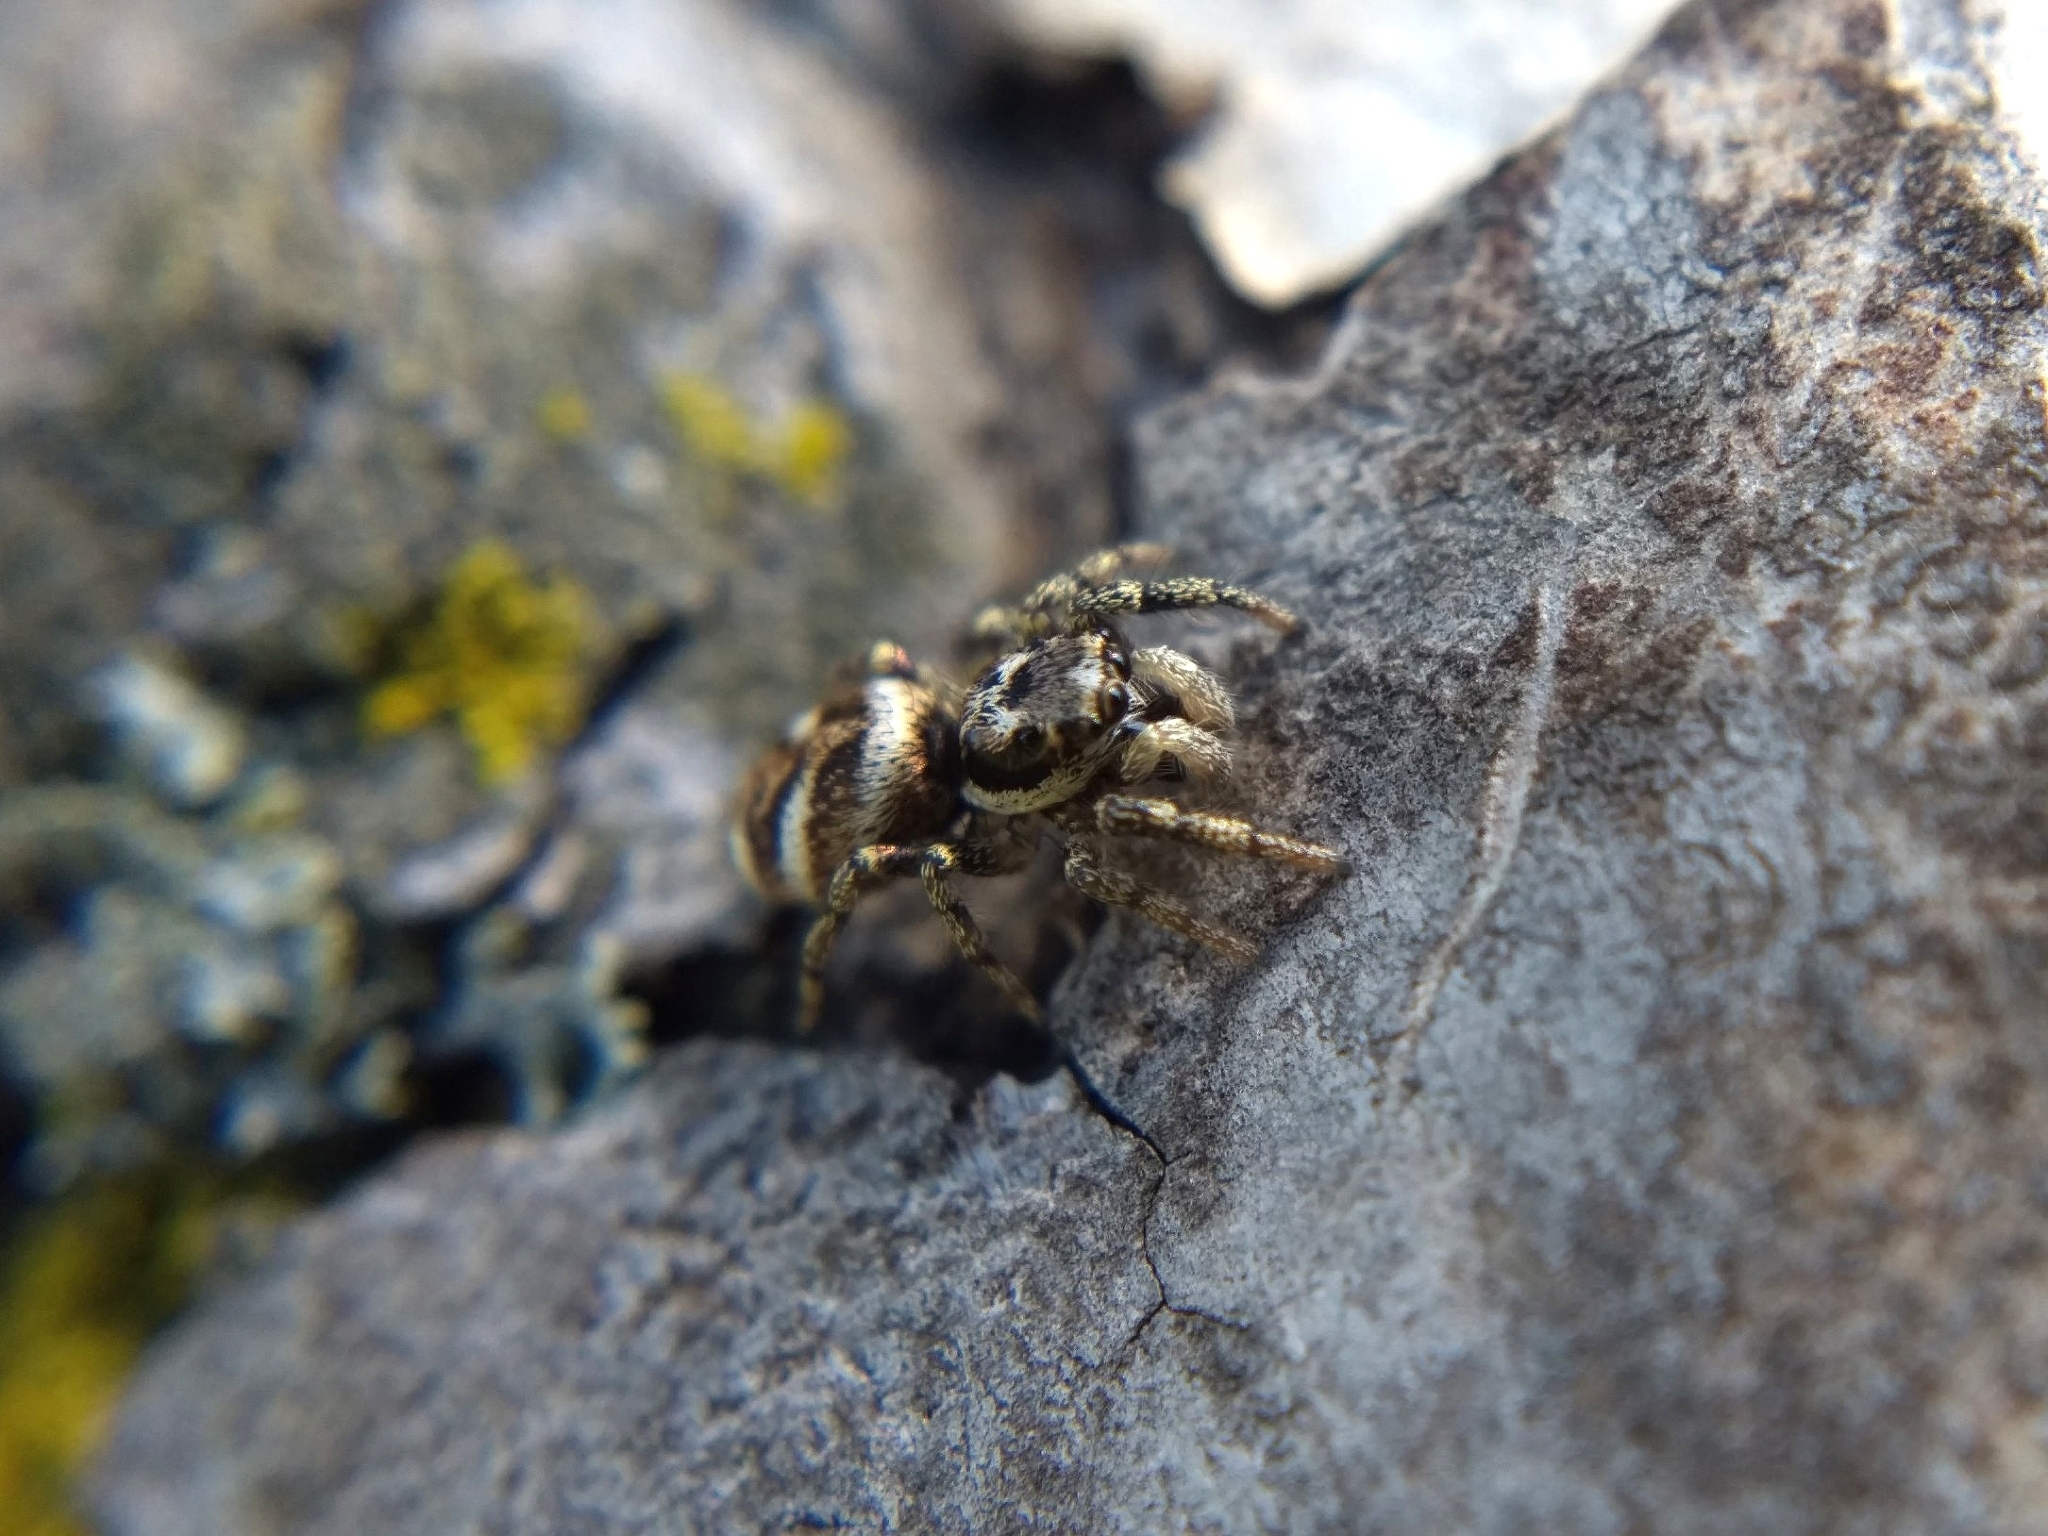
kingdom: Animalia
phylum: Arthropoda
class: Arachnida
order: Araneae
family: Salticidae
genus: Salticus
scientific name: Salticus scenicus
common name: Zebra jumper
